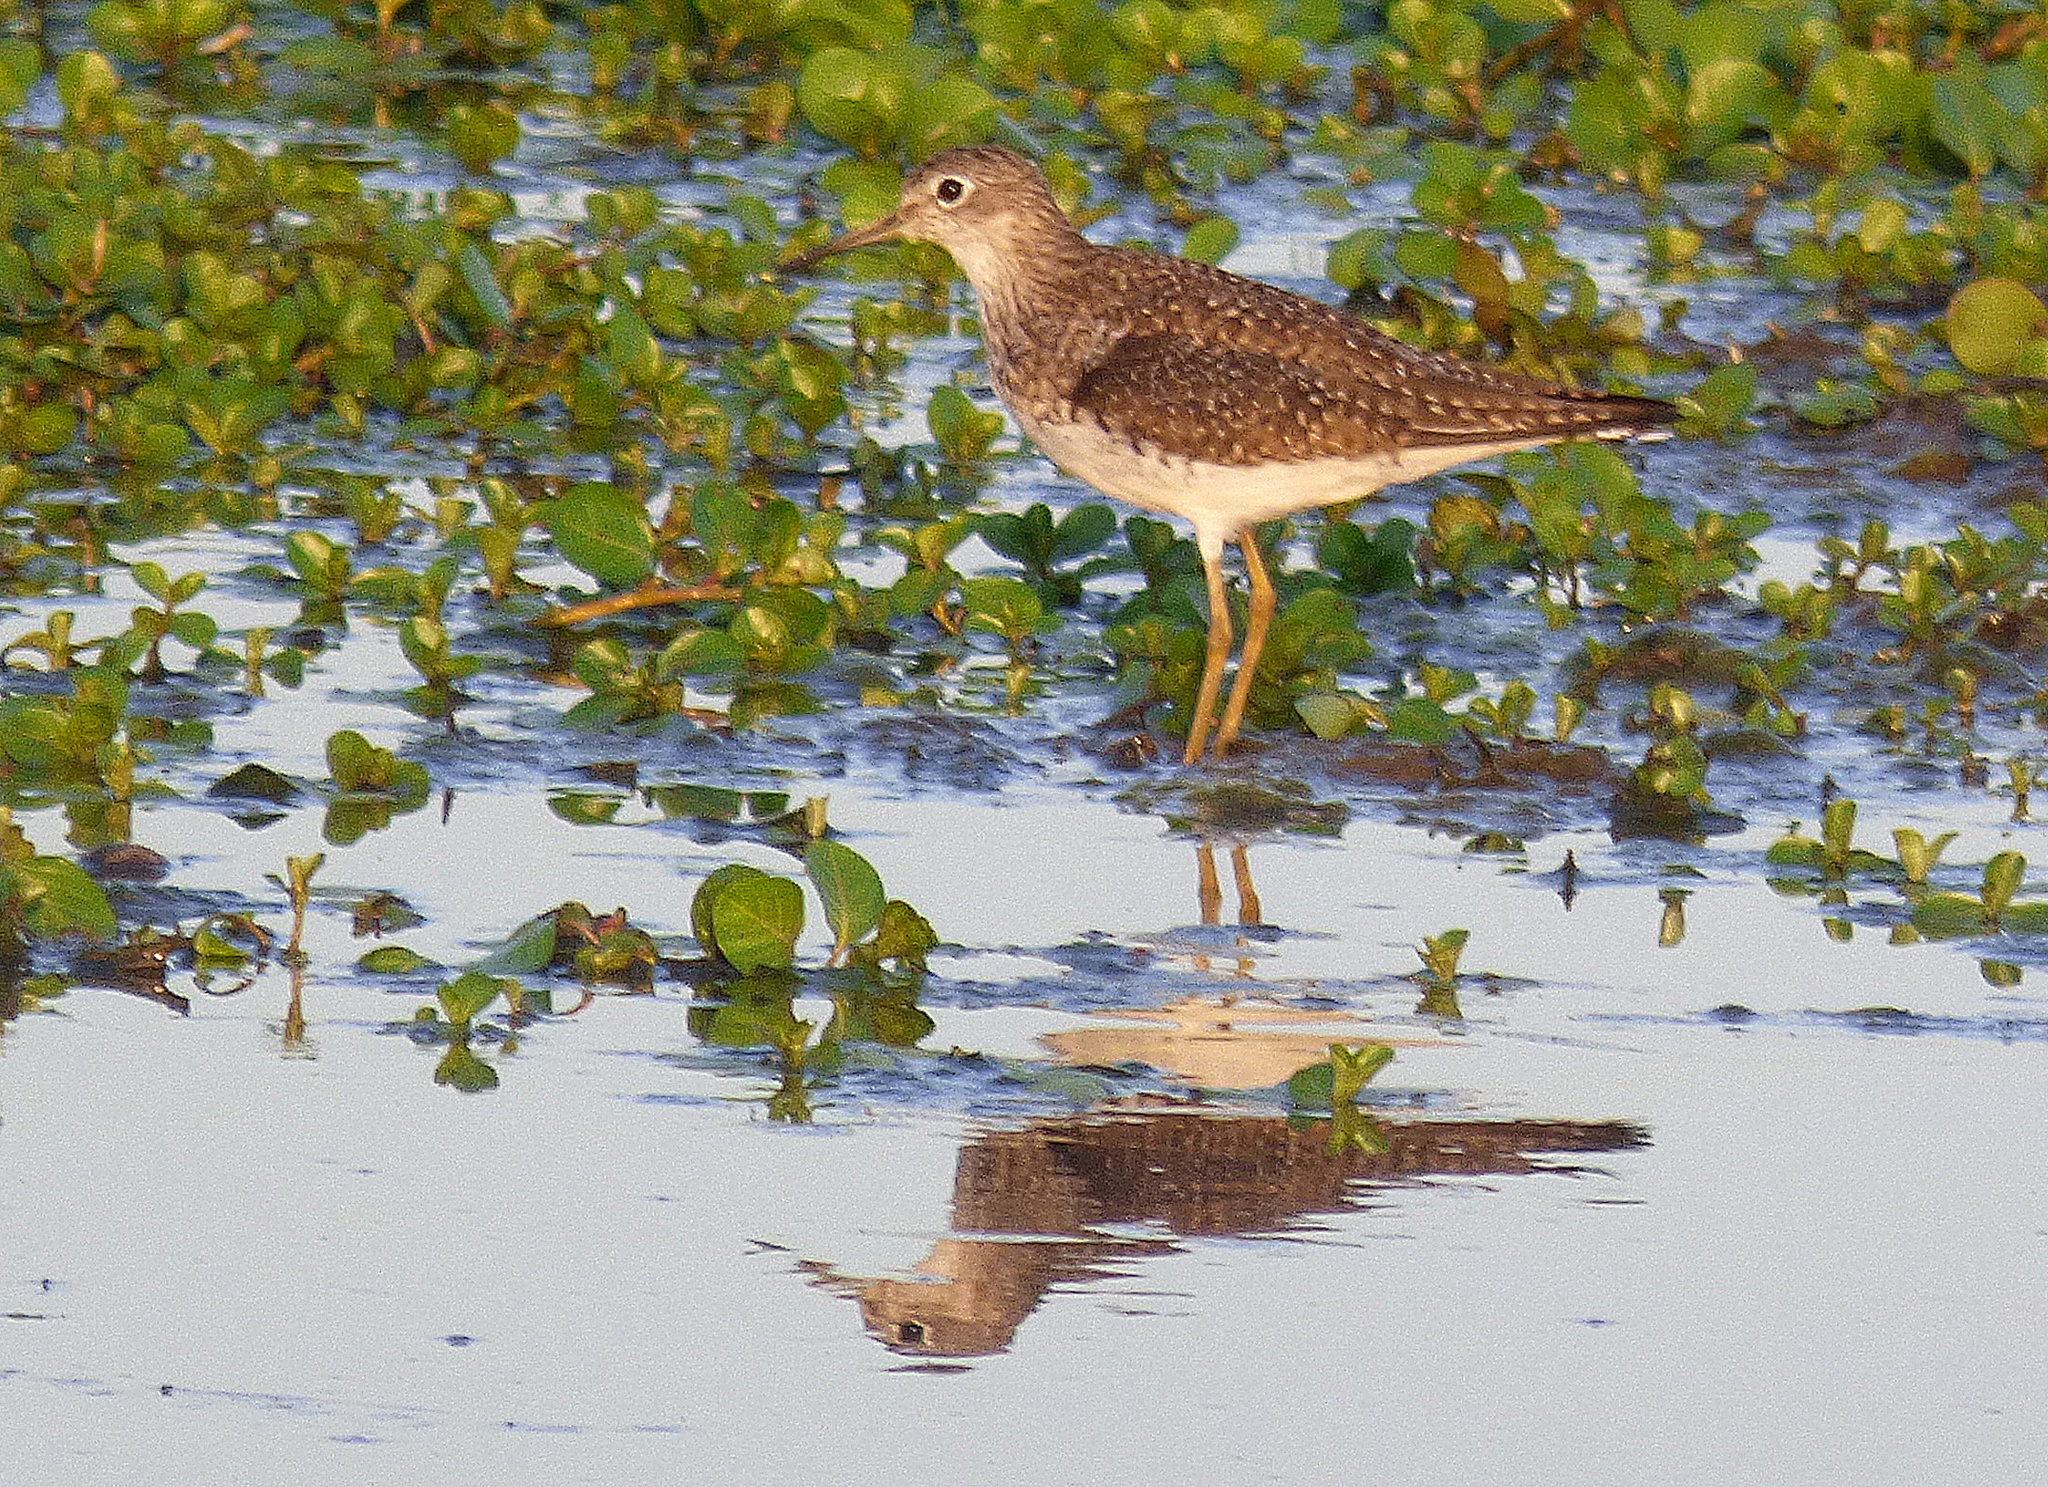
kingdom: Animalia
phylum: Chordata
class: Aves
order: Charadriiformes
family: Scolopacidae
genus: Tringa
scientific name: Tringa solitaria
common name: Solitary sandpiper
